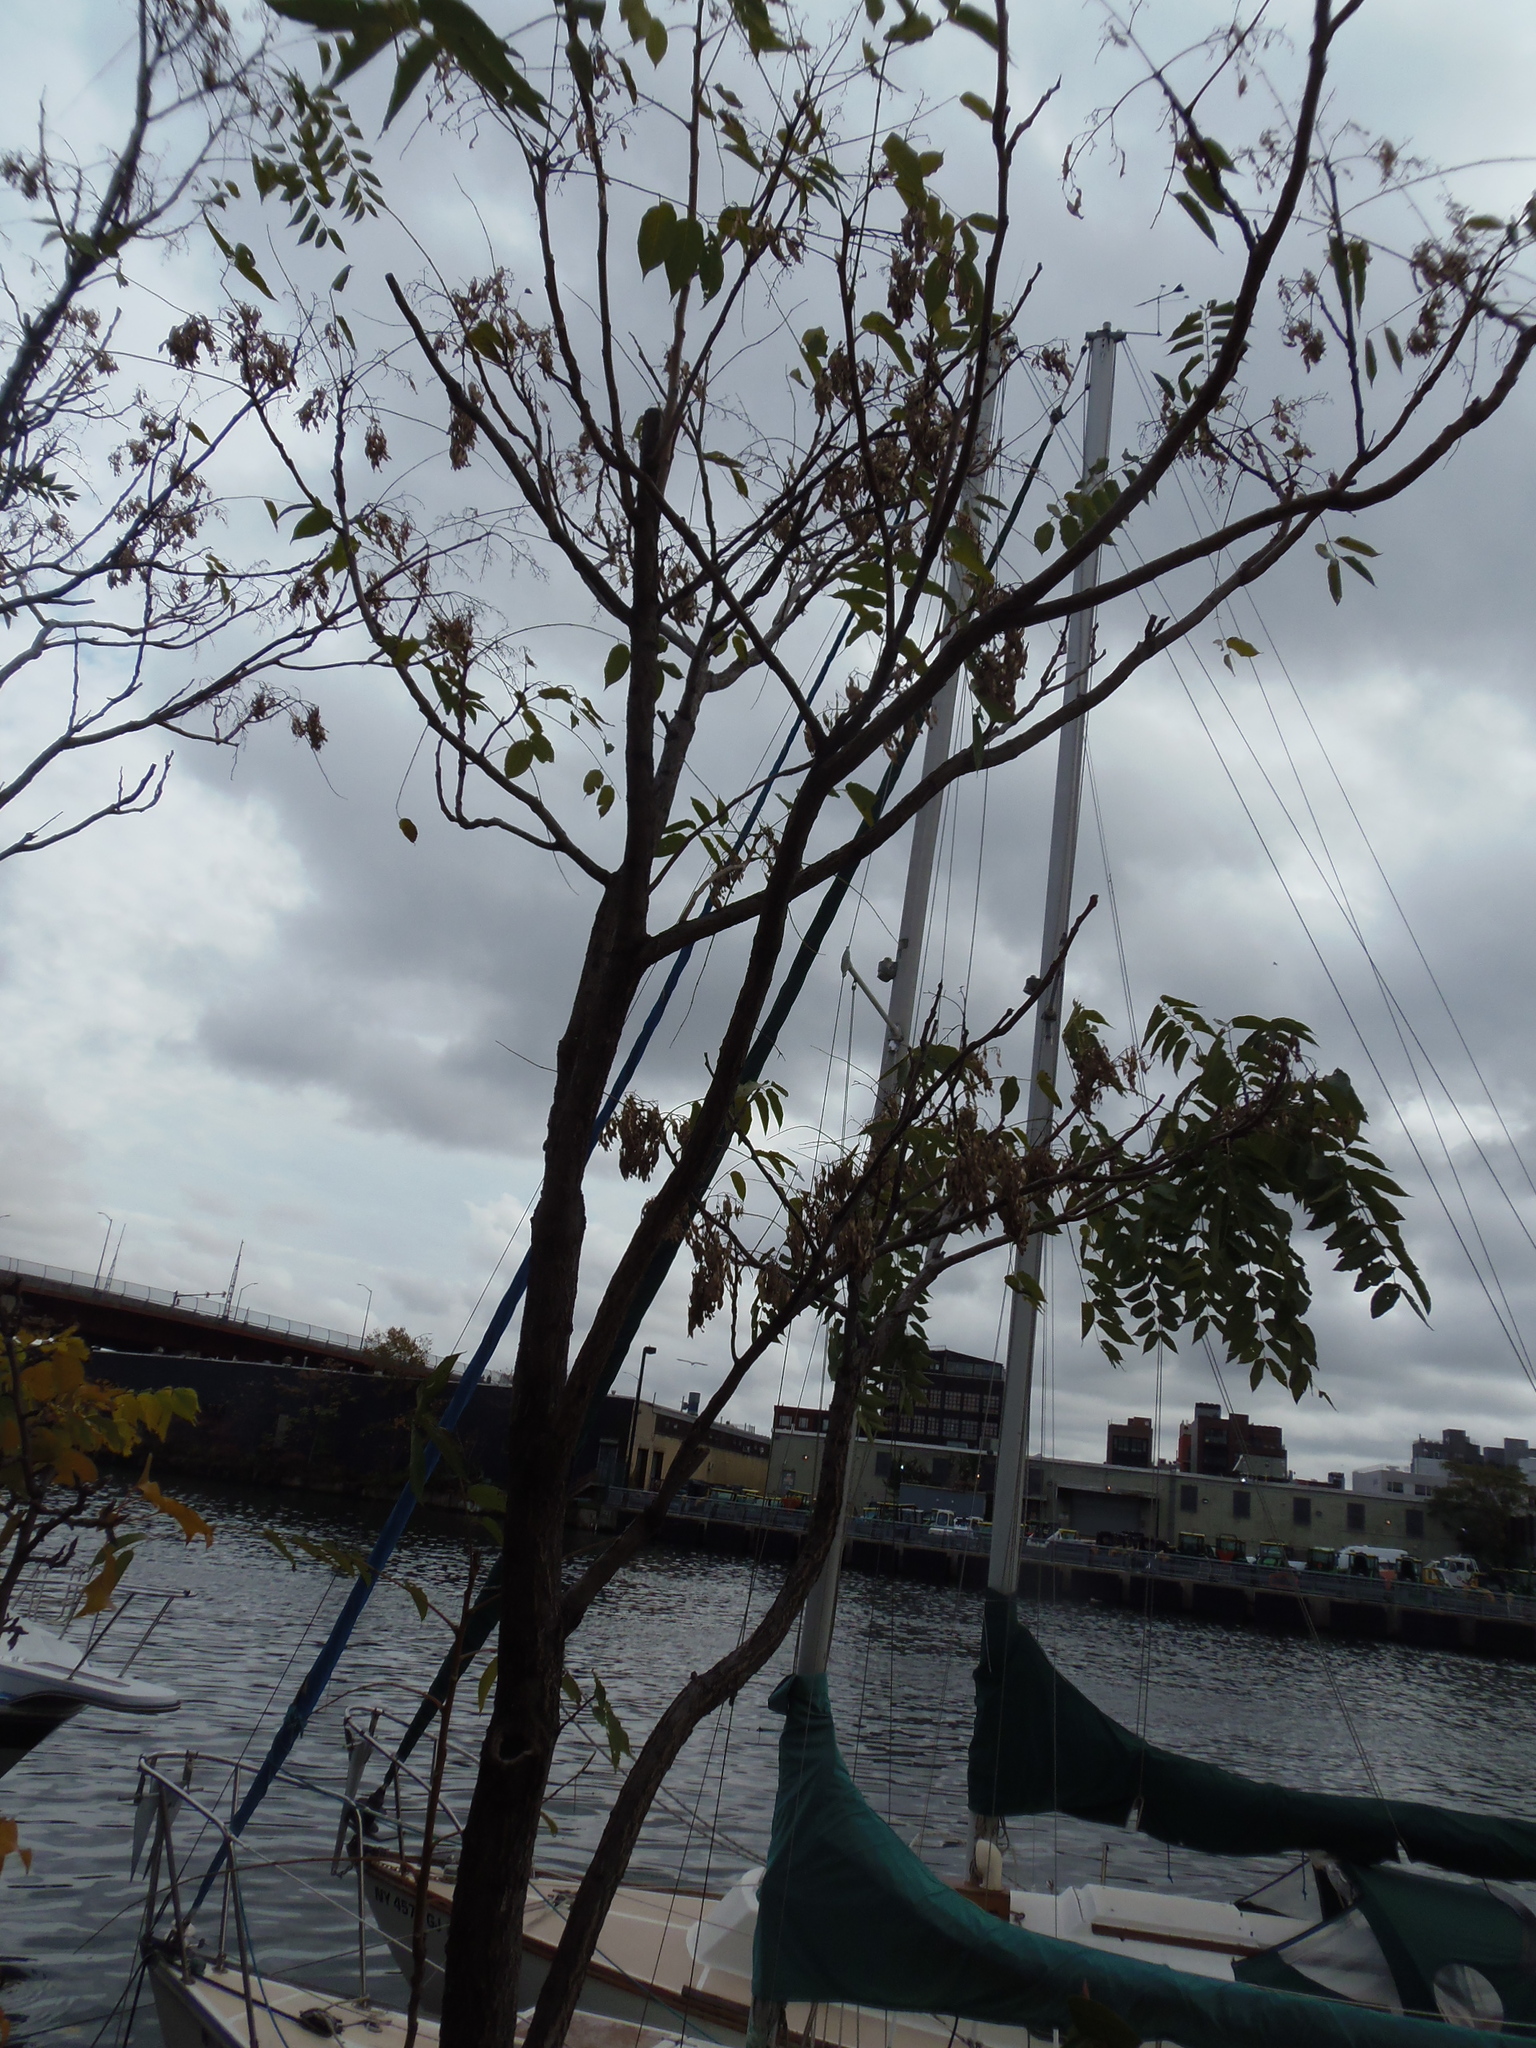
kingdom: Plantae
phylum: Tracheophyta
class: Magnoliopsida
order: Sapindales
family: Simaroubaceae
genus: Ailanthus
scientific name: Ailanthus altissima
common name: Tree-of-heaven
